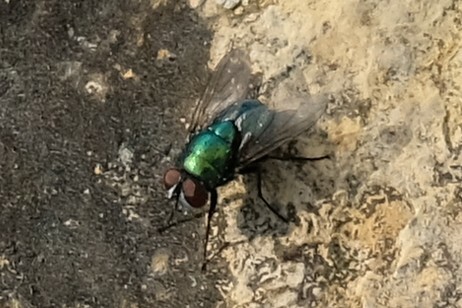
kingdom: Animalia
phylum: Arthropoda
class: Insecta
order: Diptera
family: Calliphoridae
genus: Lucilia
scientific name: Lucilia
